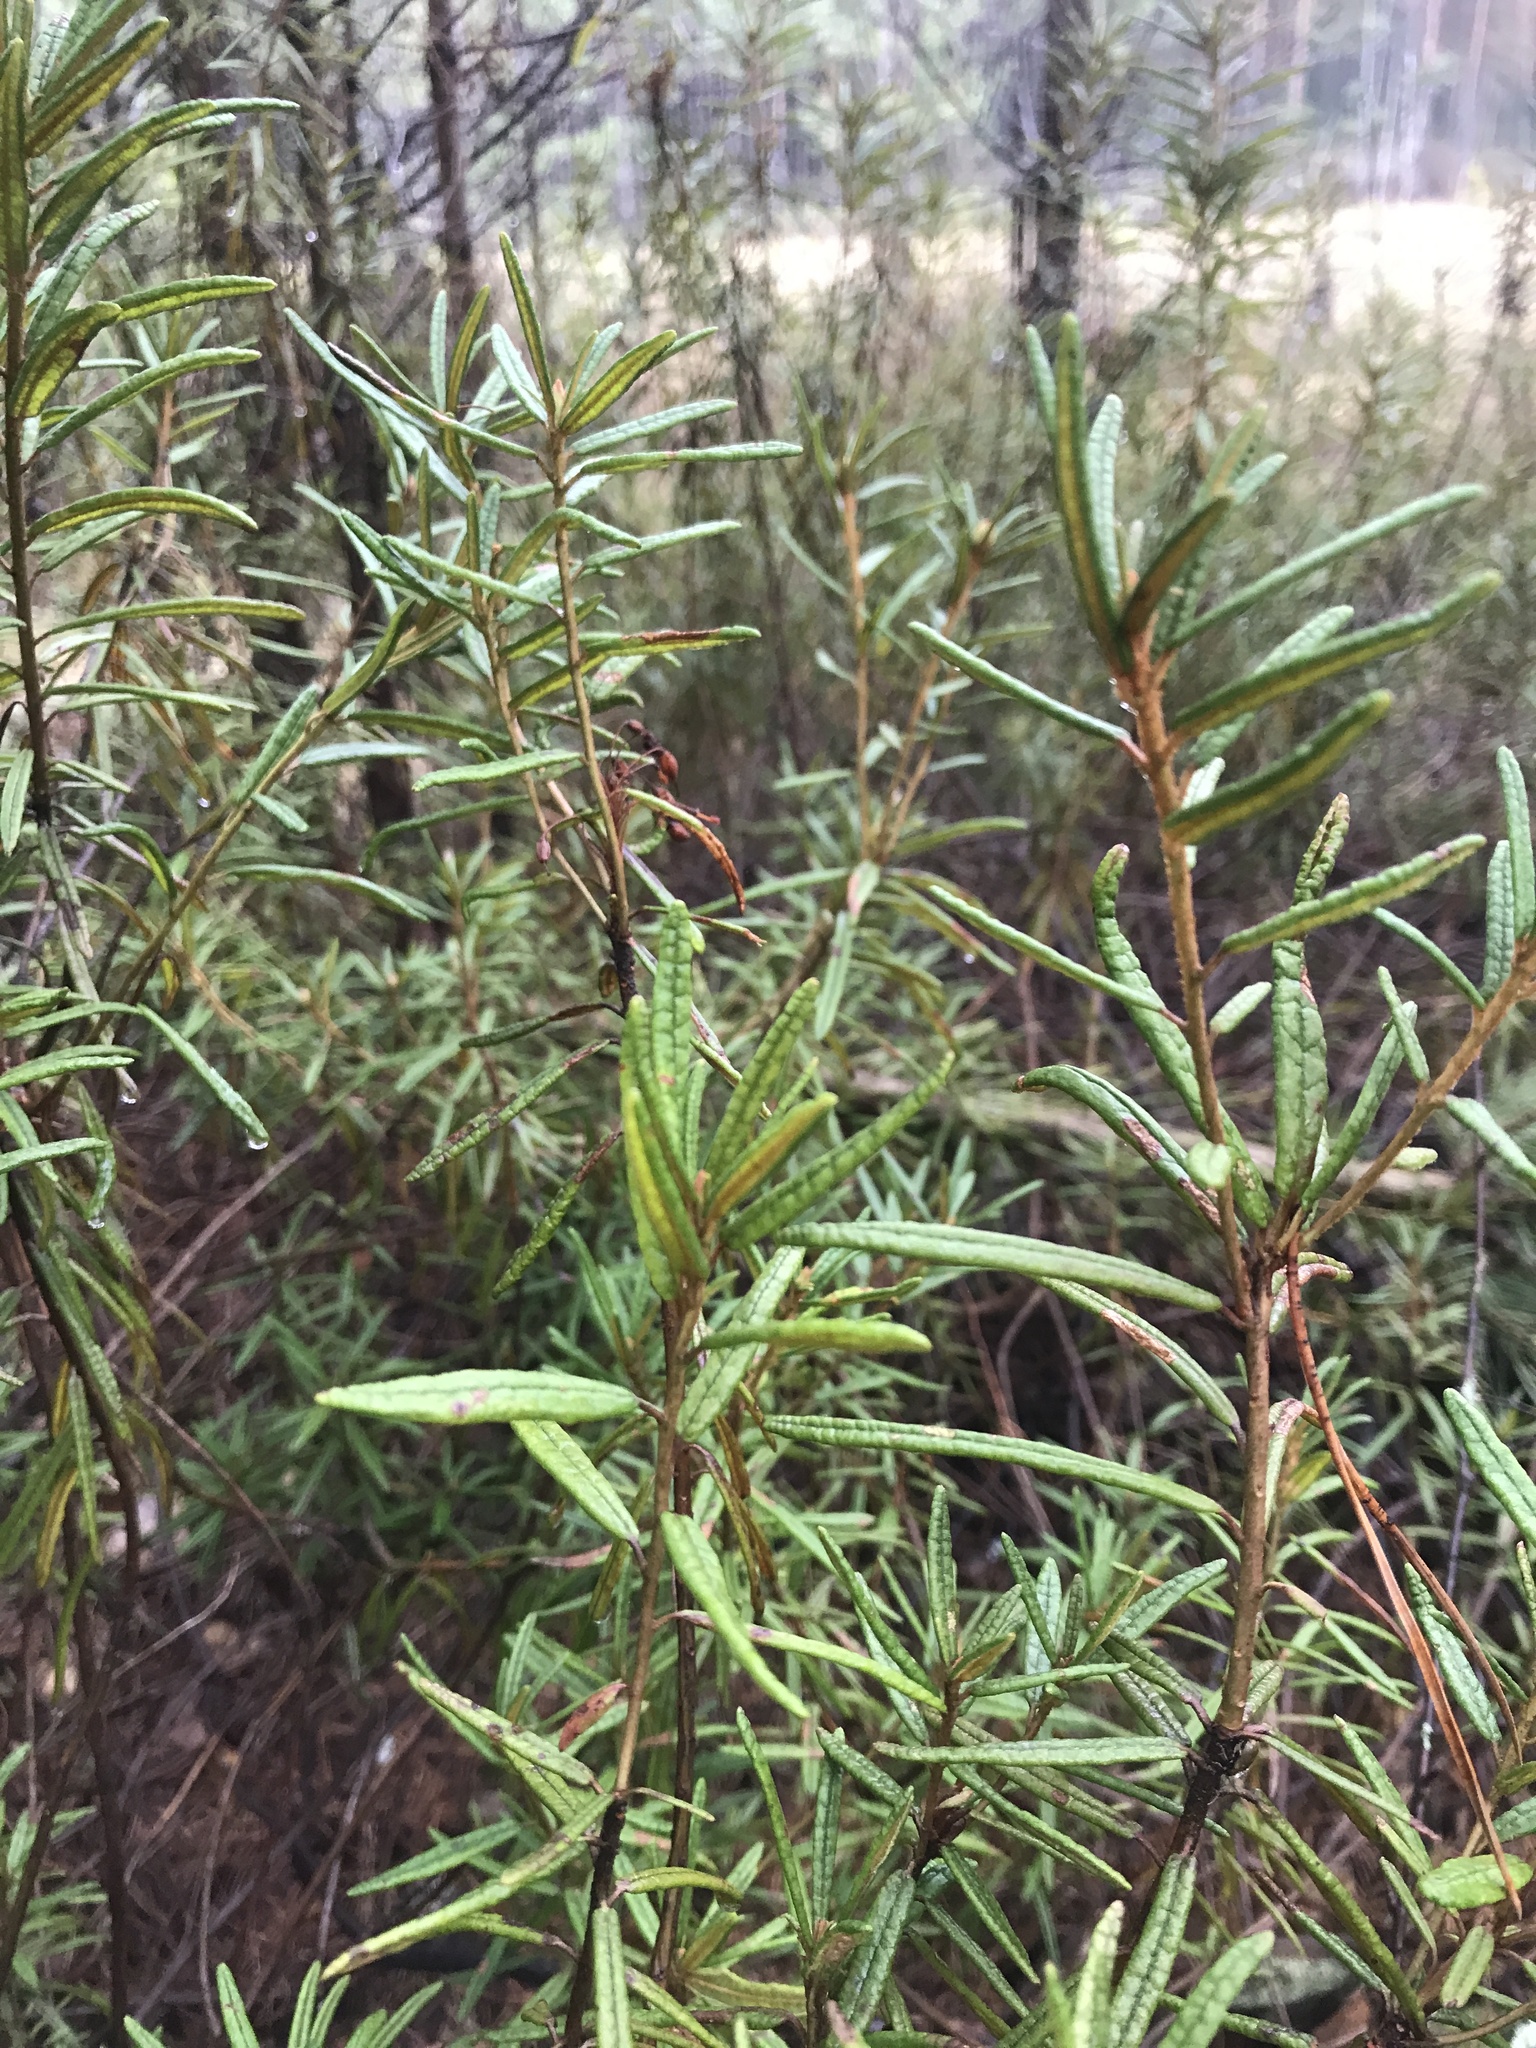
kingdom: Plantae
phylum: Tracheophyta
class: Magnoliopsida
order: Ericales
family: Ericaceae
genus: Rhododendron
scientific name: Rhododendron tomentosum
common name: Marsh labrador tea
